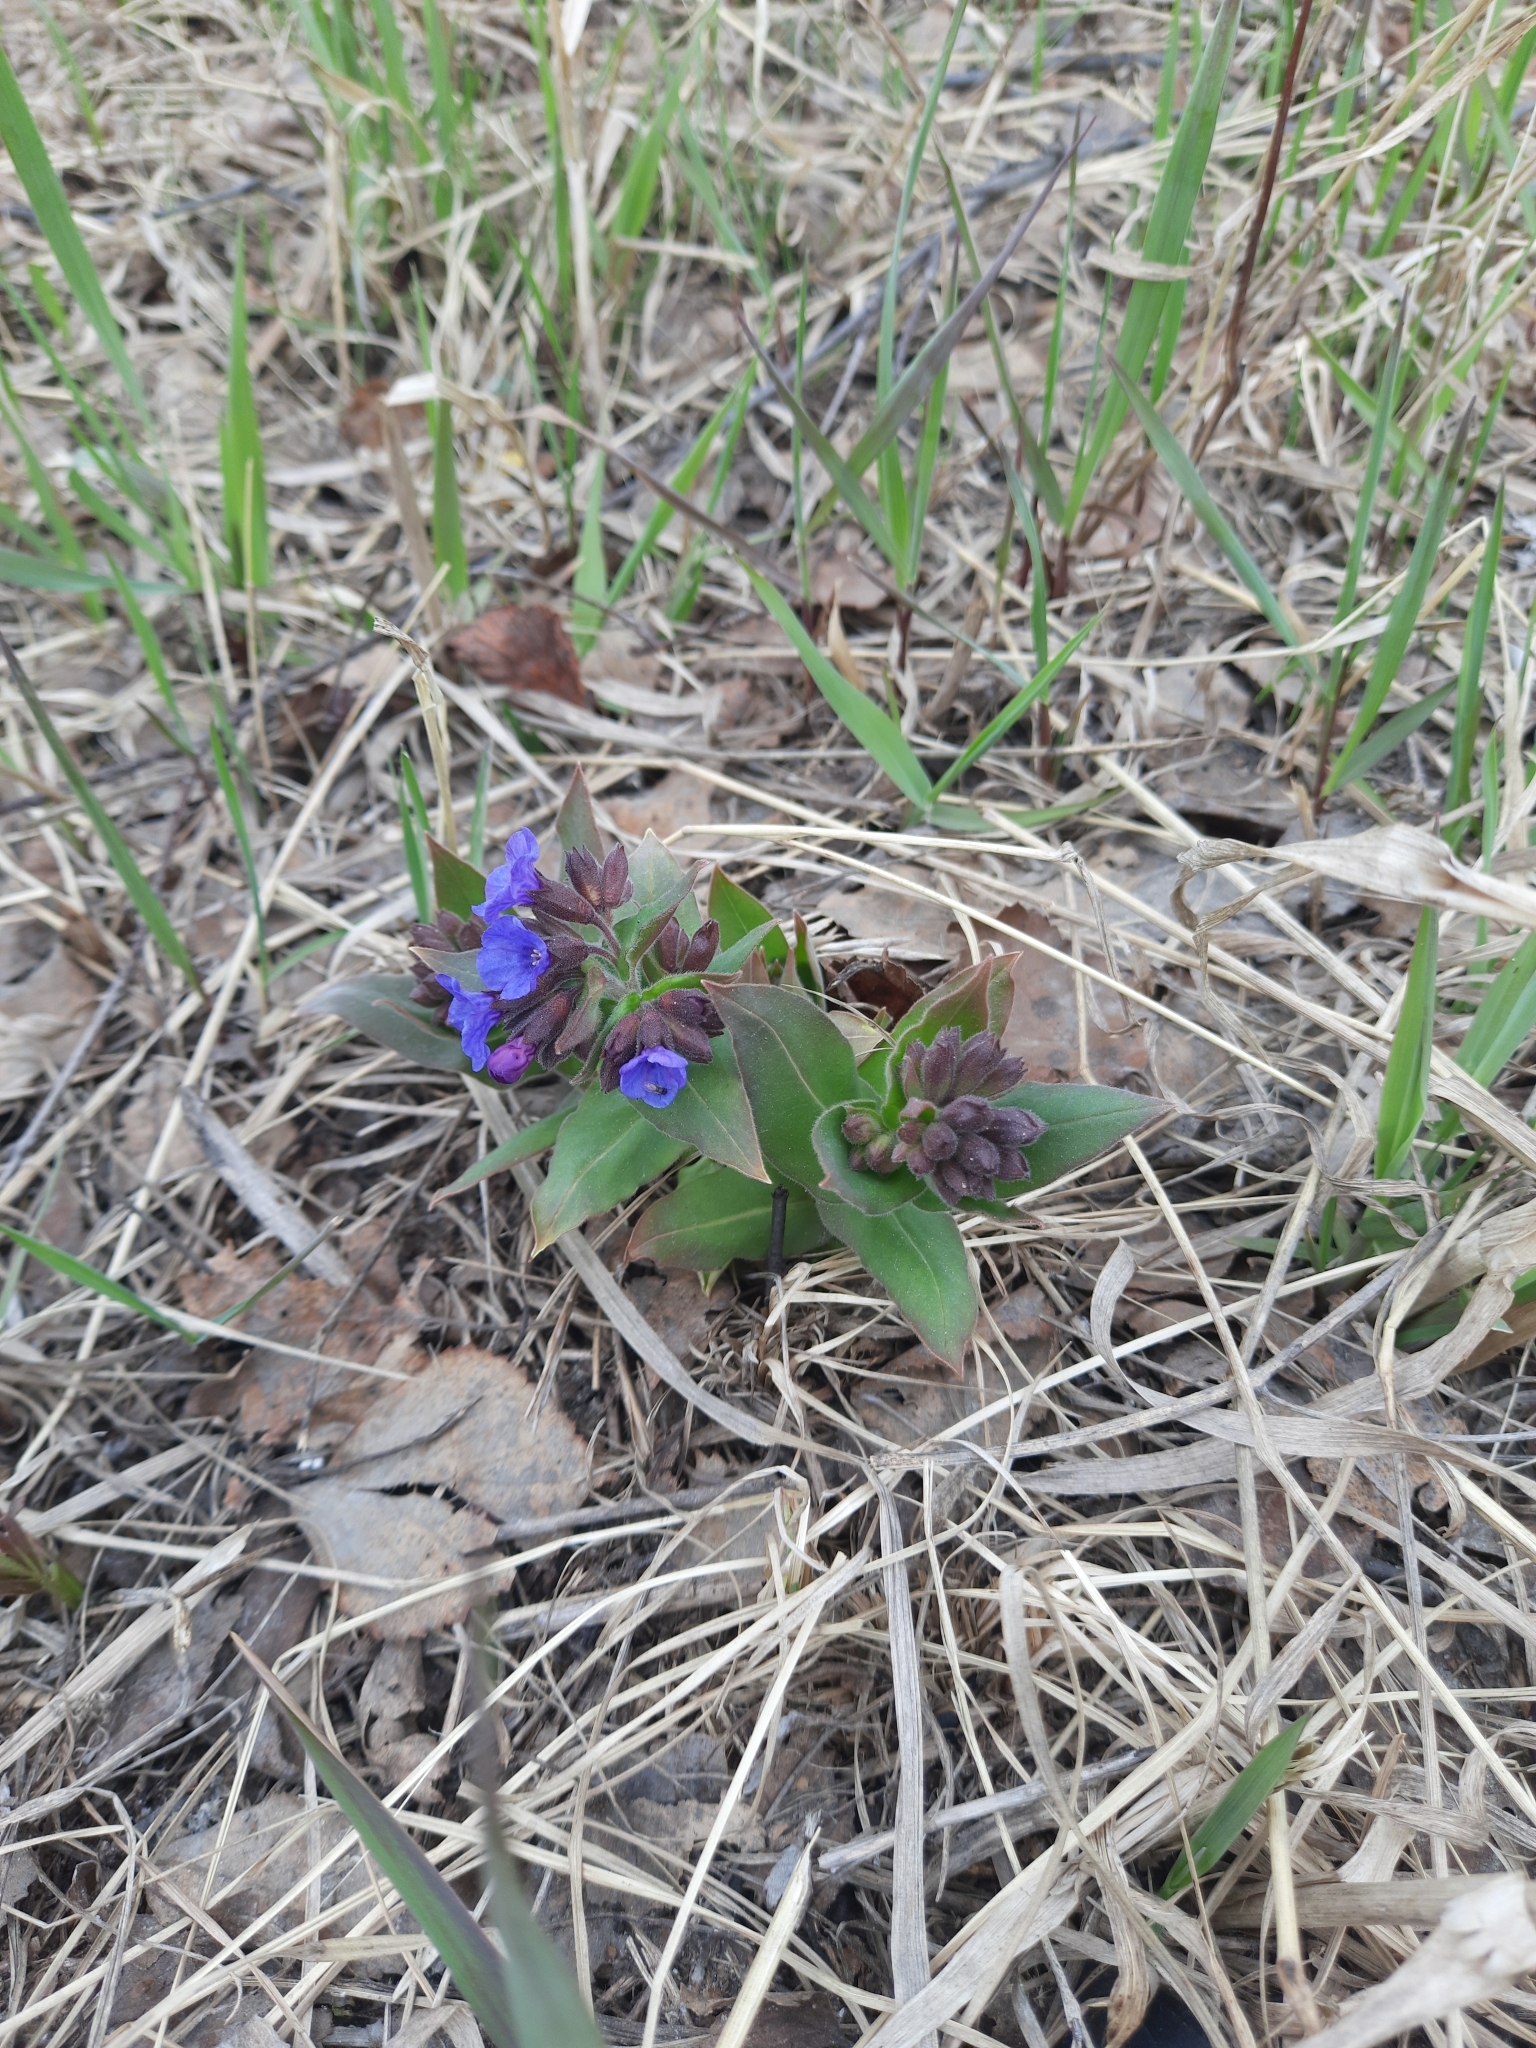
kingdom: Plantae
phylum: Tracheophyta
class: Magnoliopsida
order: Boraginales
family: Boraginaceae
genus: Pulmonaria
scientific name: Pulmonaria mollis
